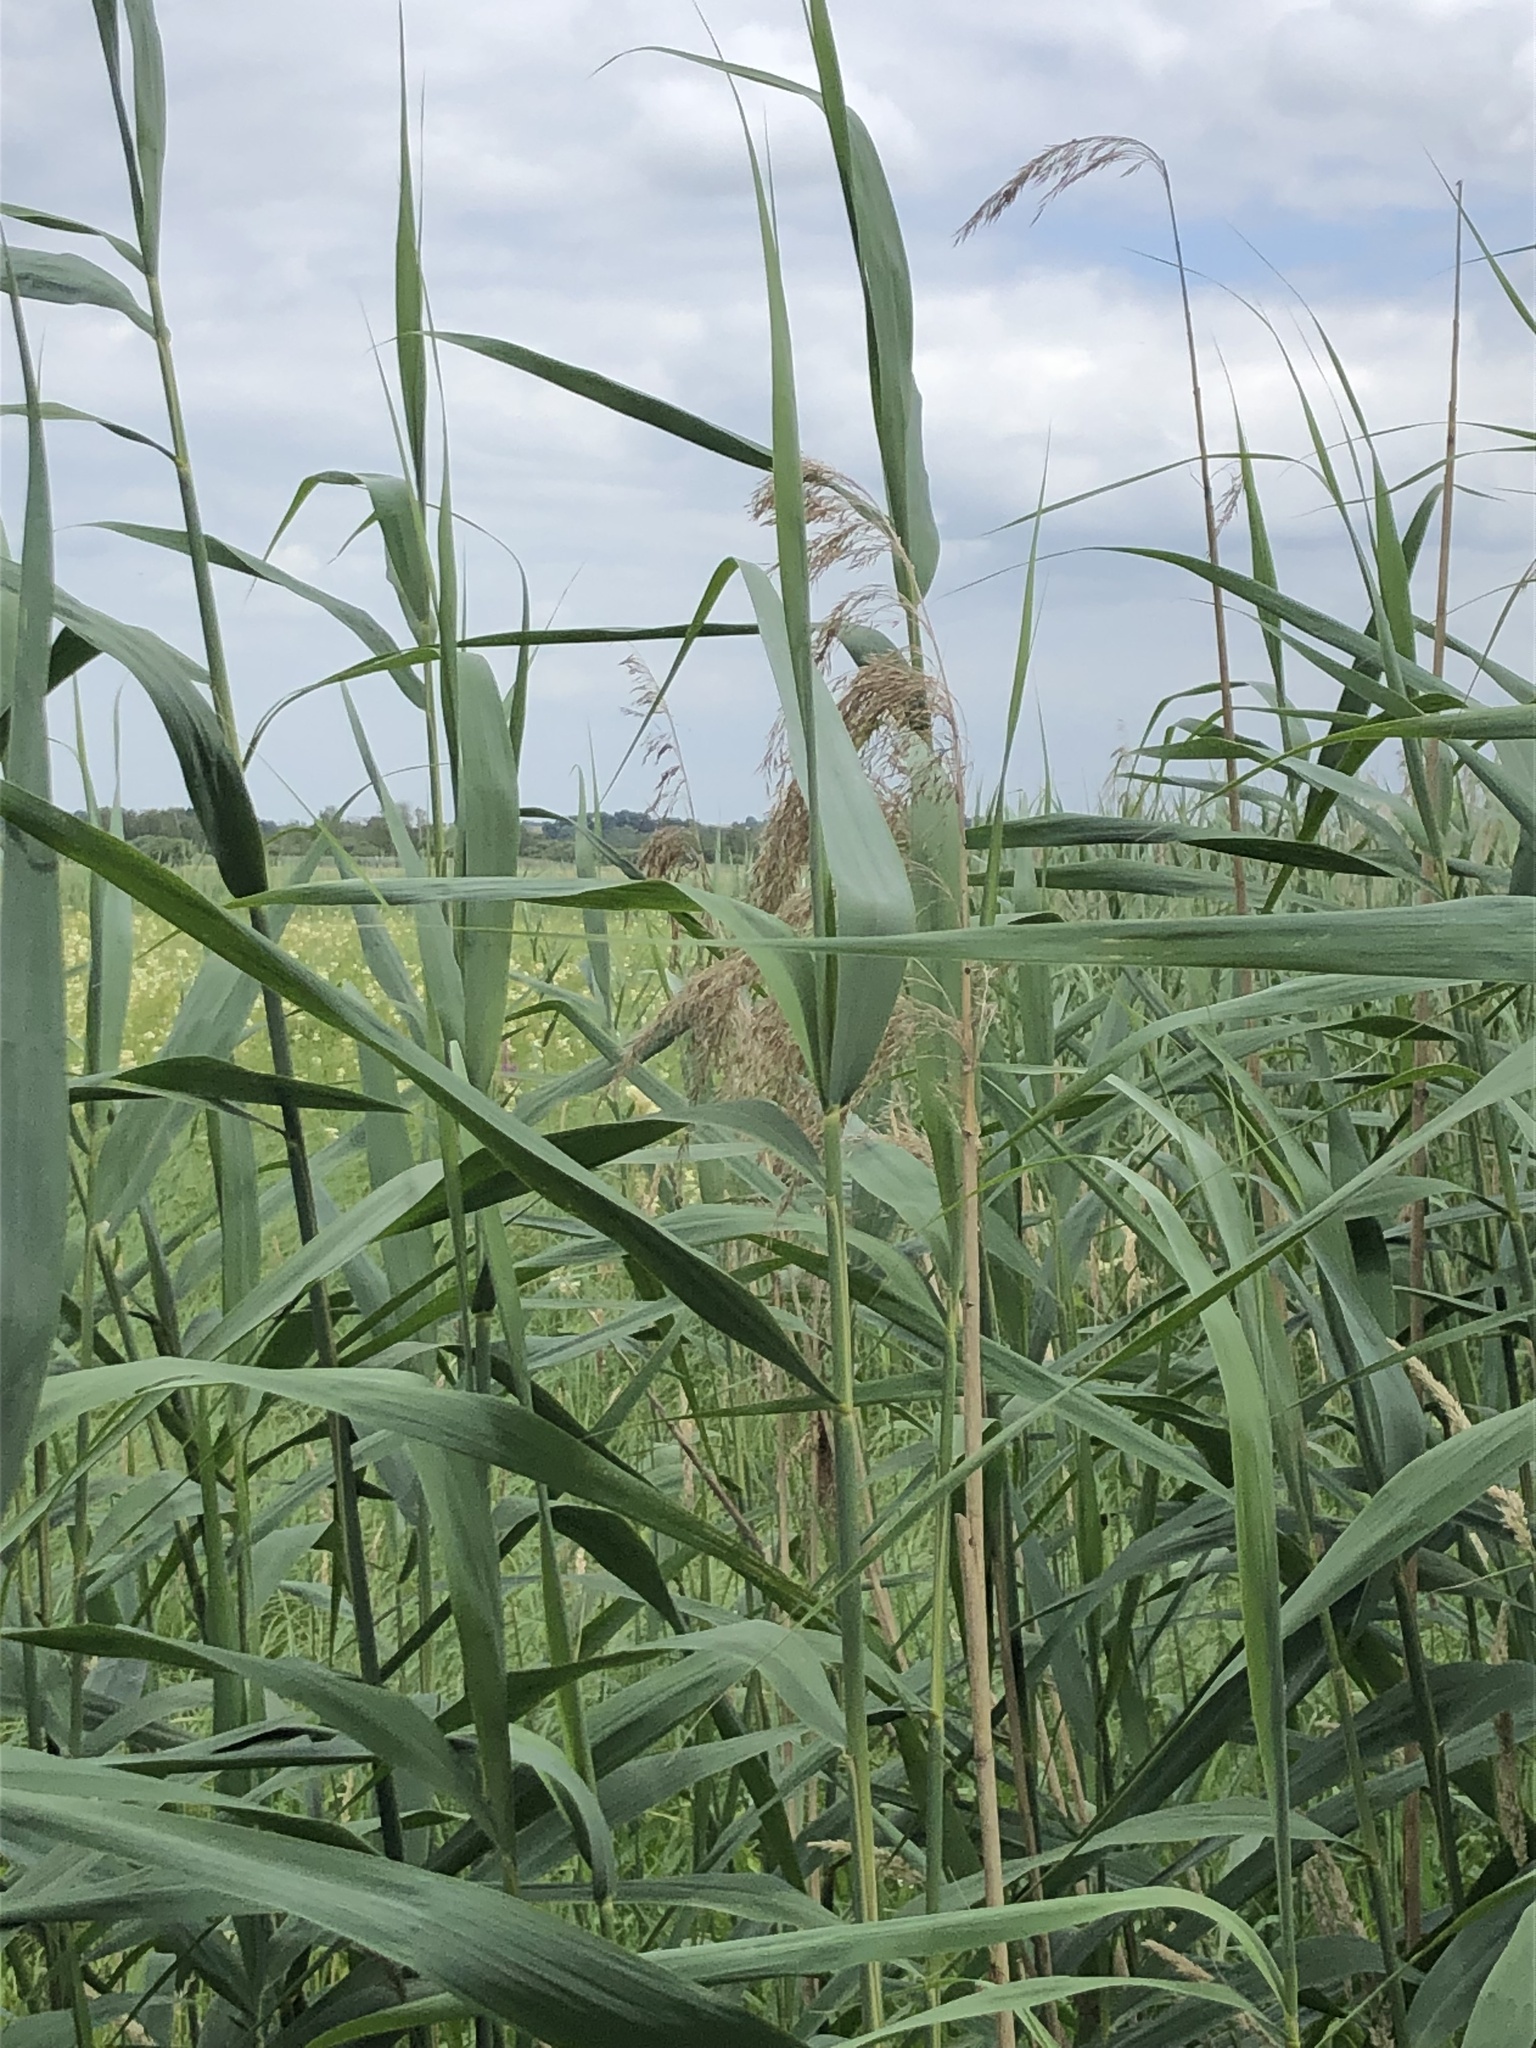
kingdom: Plantae
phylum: Tracheophyta
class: Liliopsida
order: Poales
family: Poaceae
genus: Phragmites
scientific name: Phragmites australis
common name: Common reed
